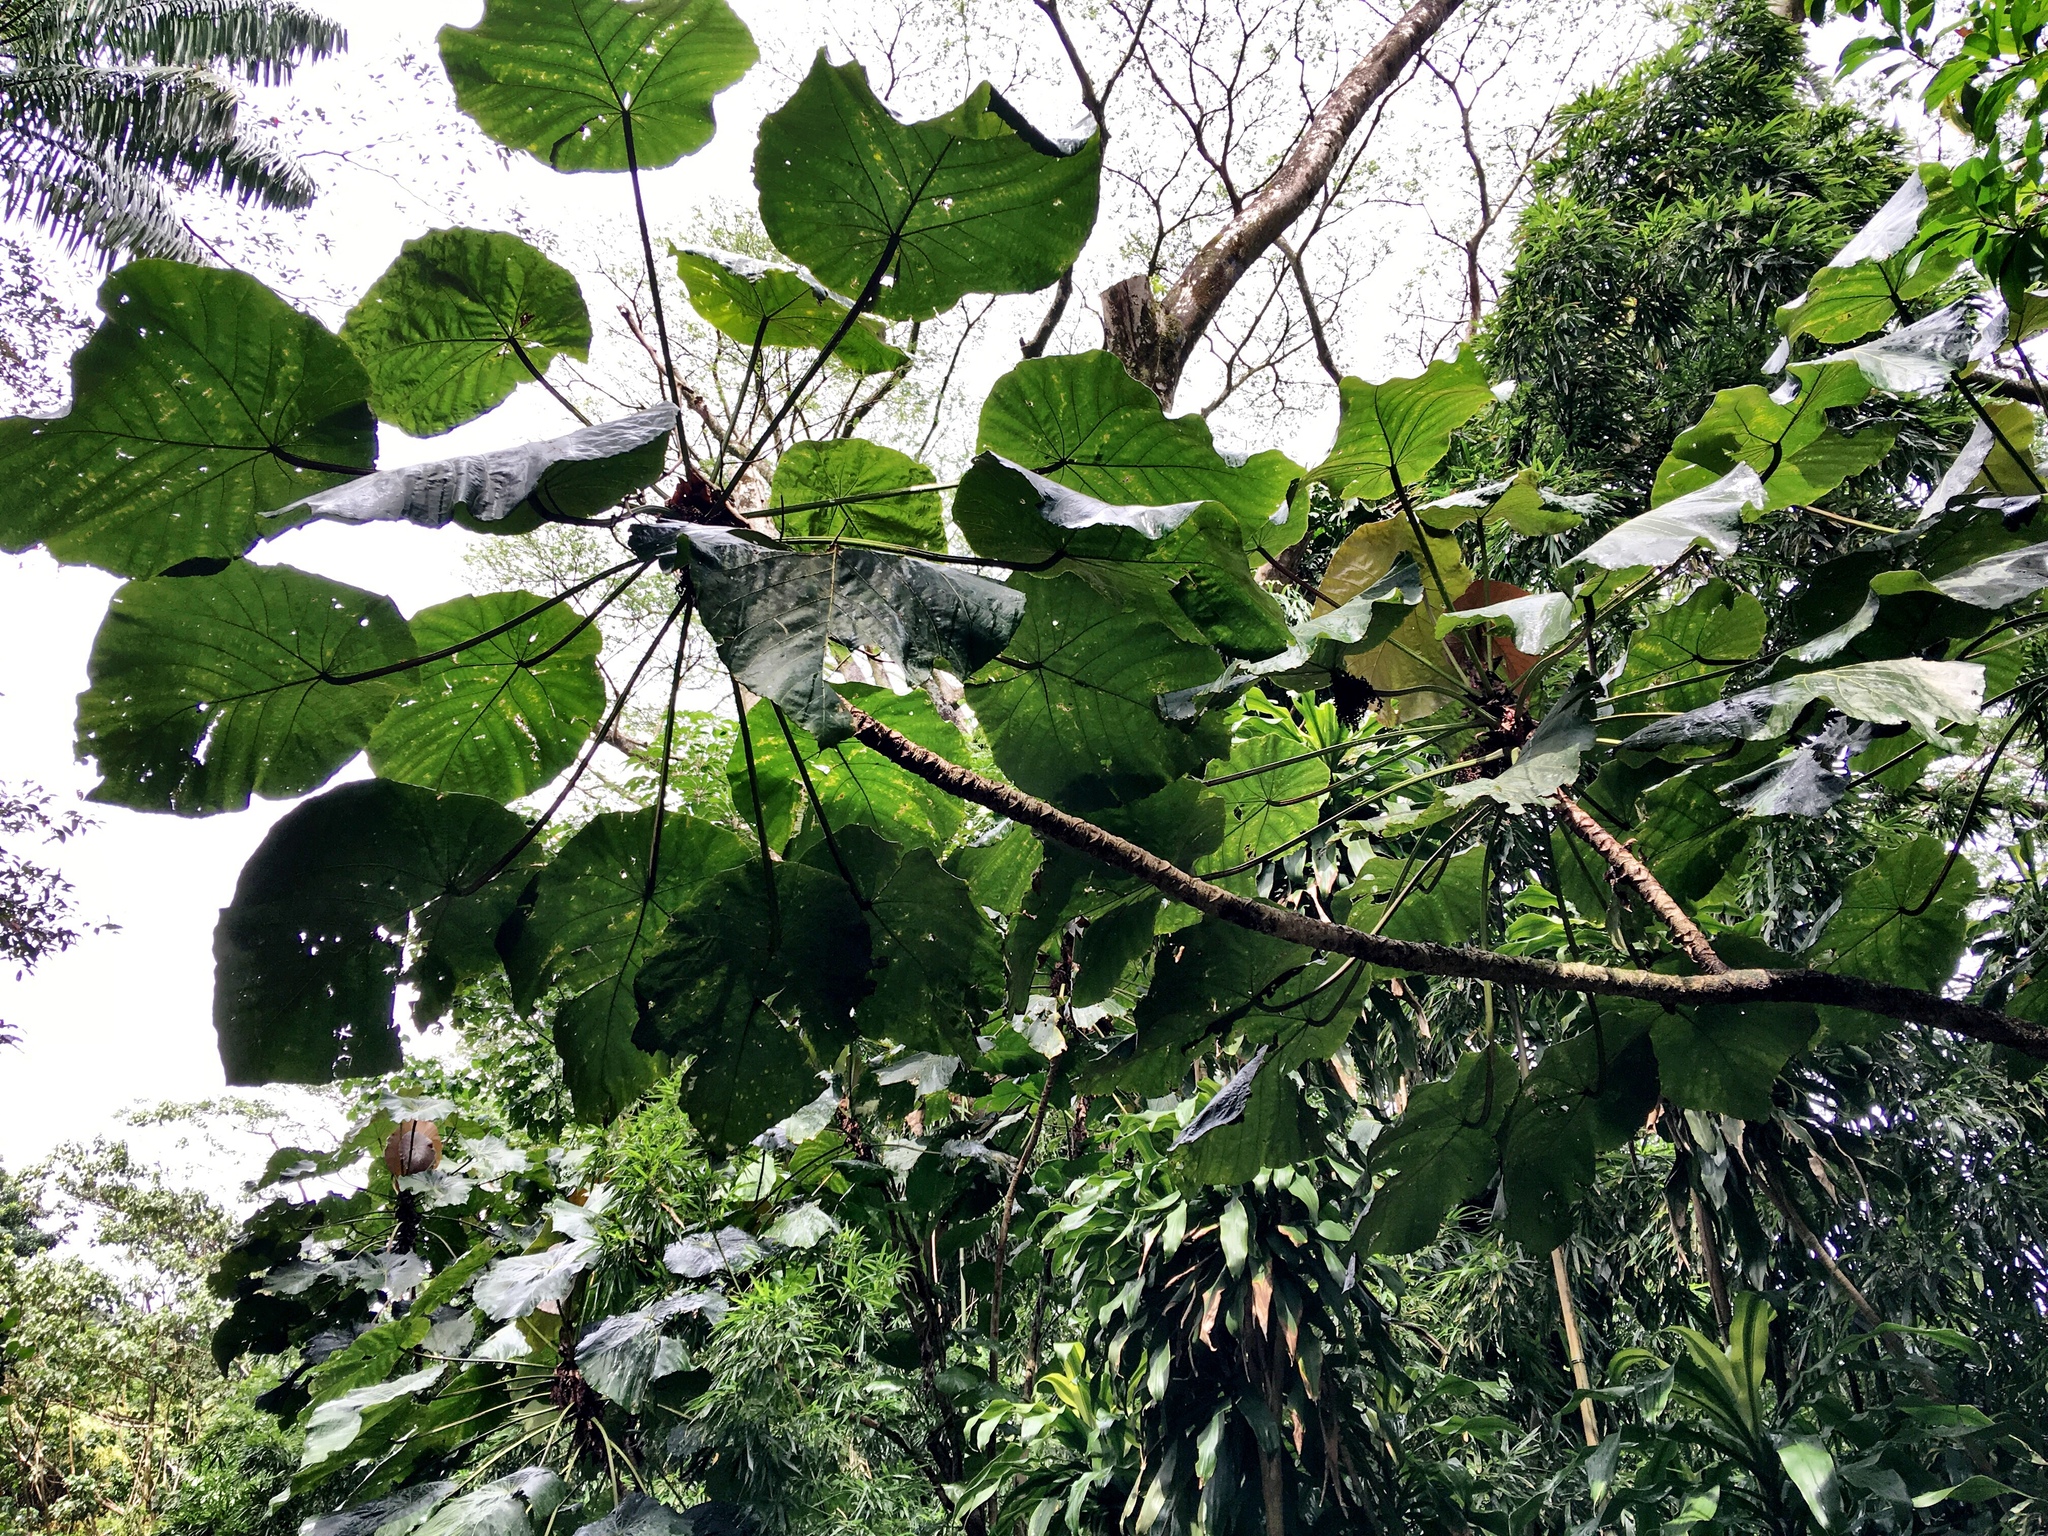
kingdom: Plantae
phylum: Tracheophyta
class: Magnoliopsida
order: Malpighiales
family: Euphorbiaceae
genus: Macaranga
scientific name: Macaranga tanarius
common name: Parasol leaf tree
